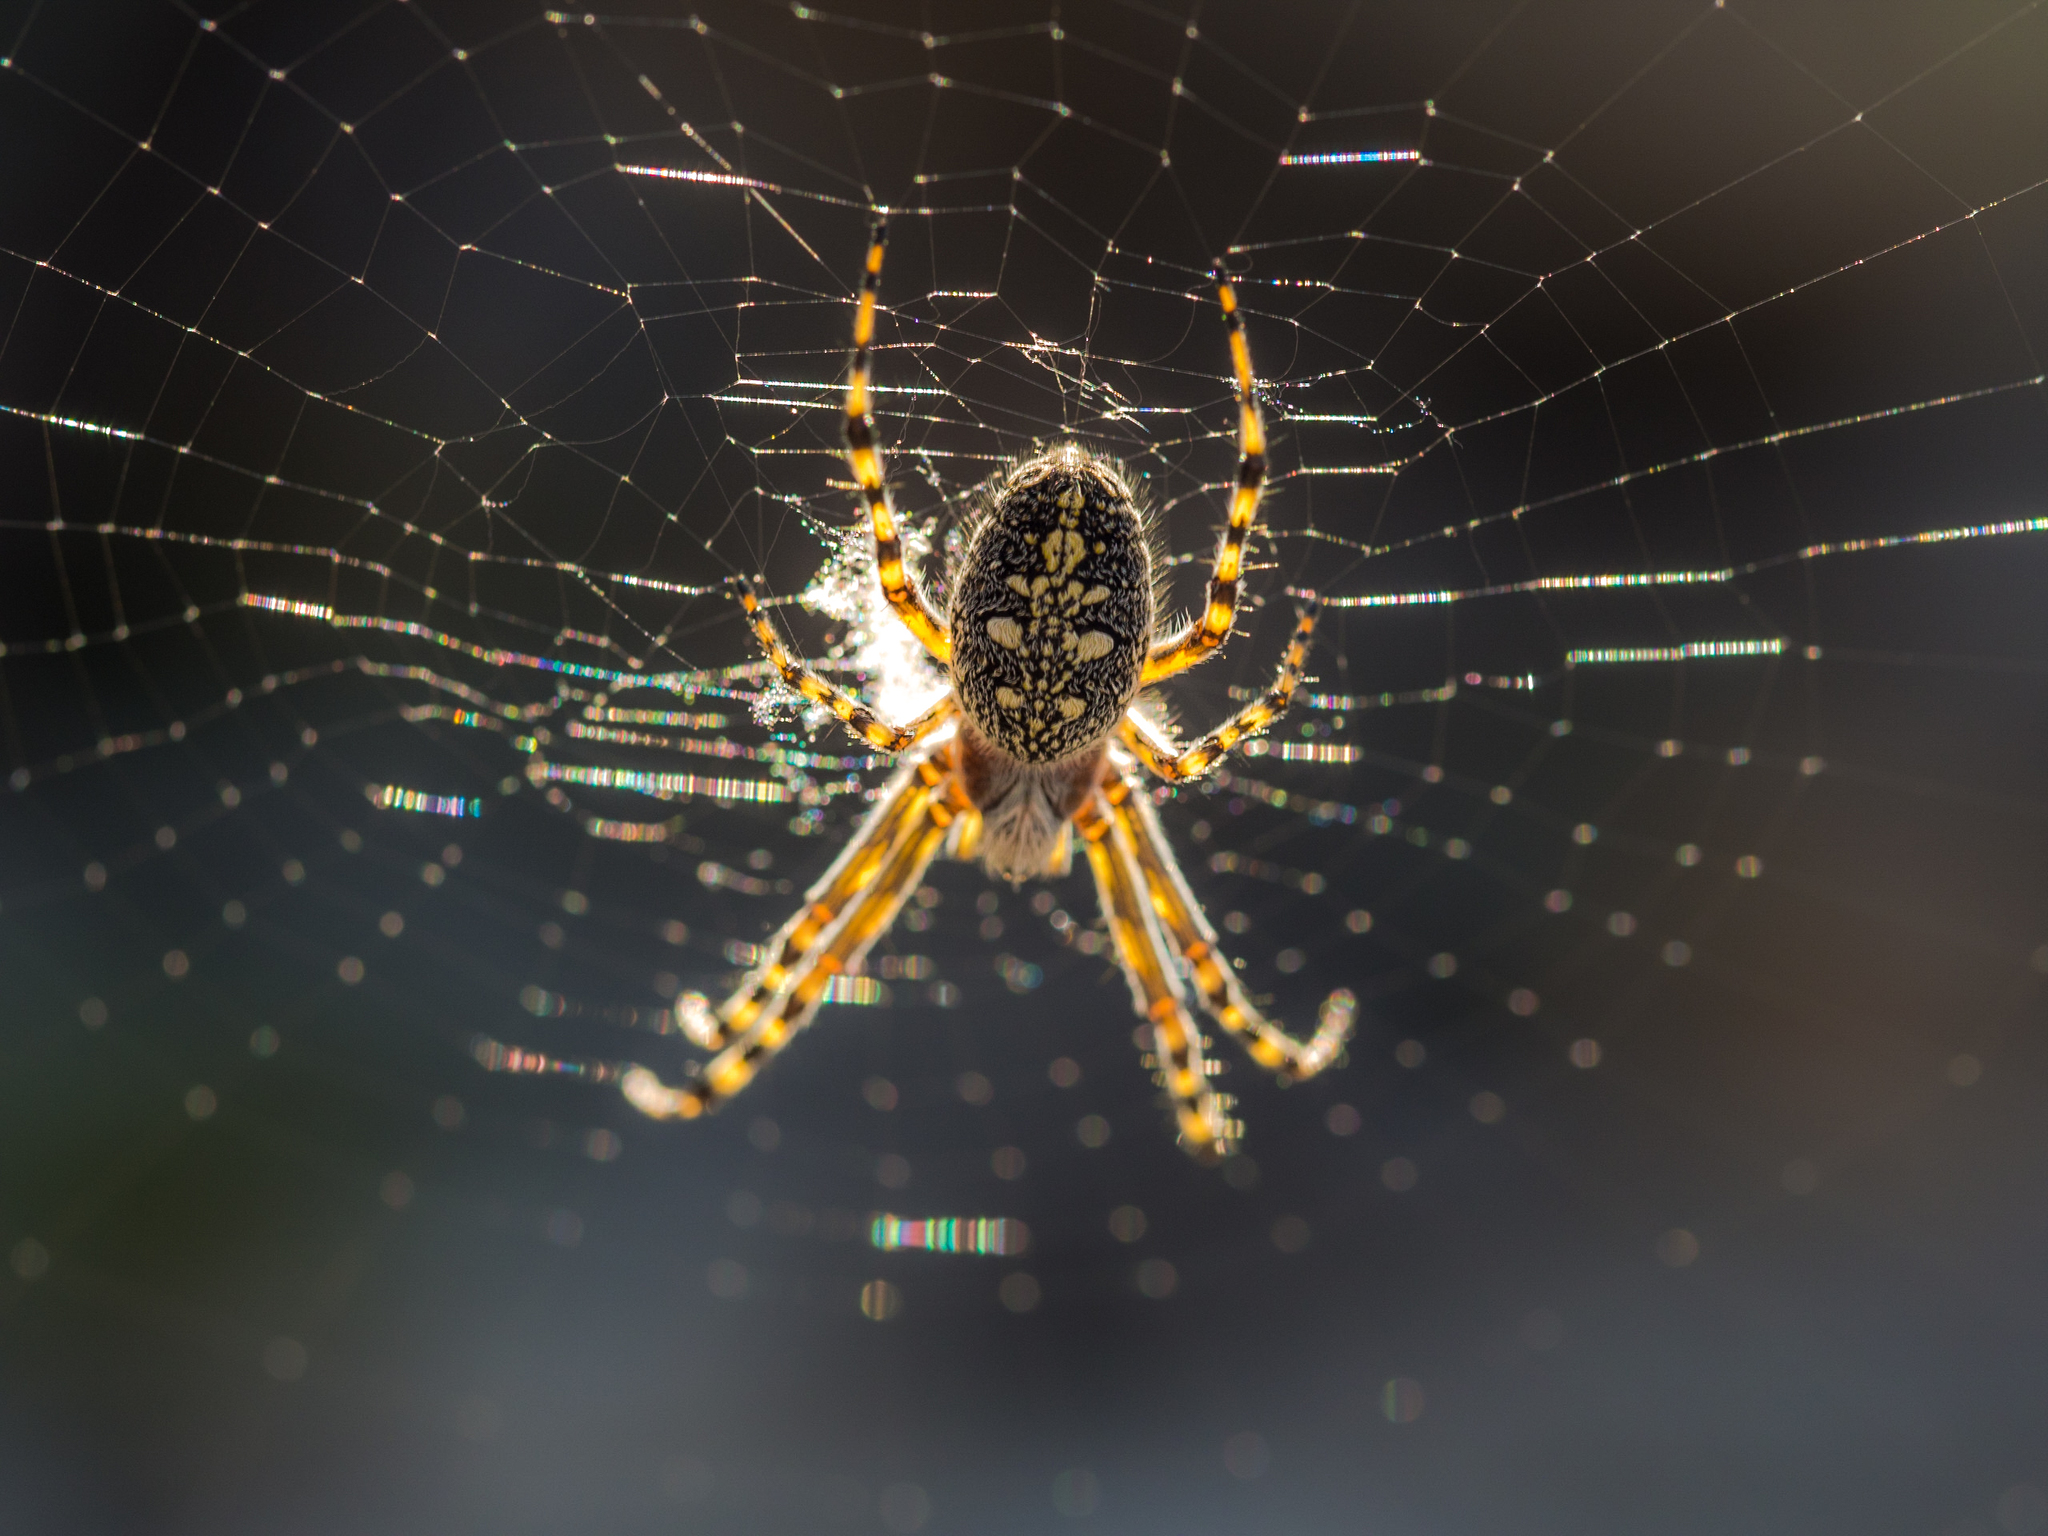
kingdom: Animalia
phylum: Arthropoda
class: Arachnida
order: Araneae
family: Araneidae
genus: Aculepeira
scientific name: Aculepeira carbonaria
